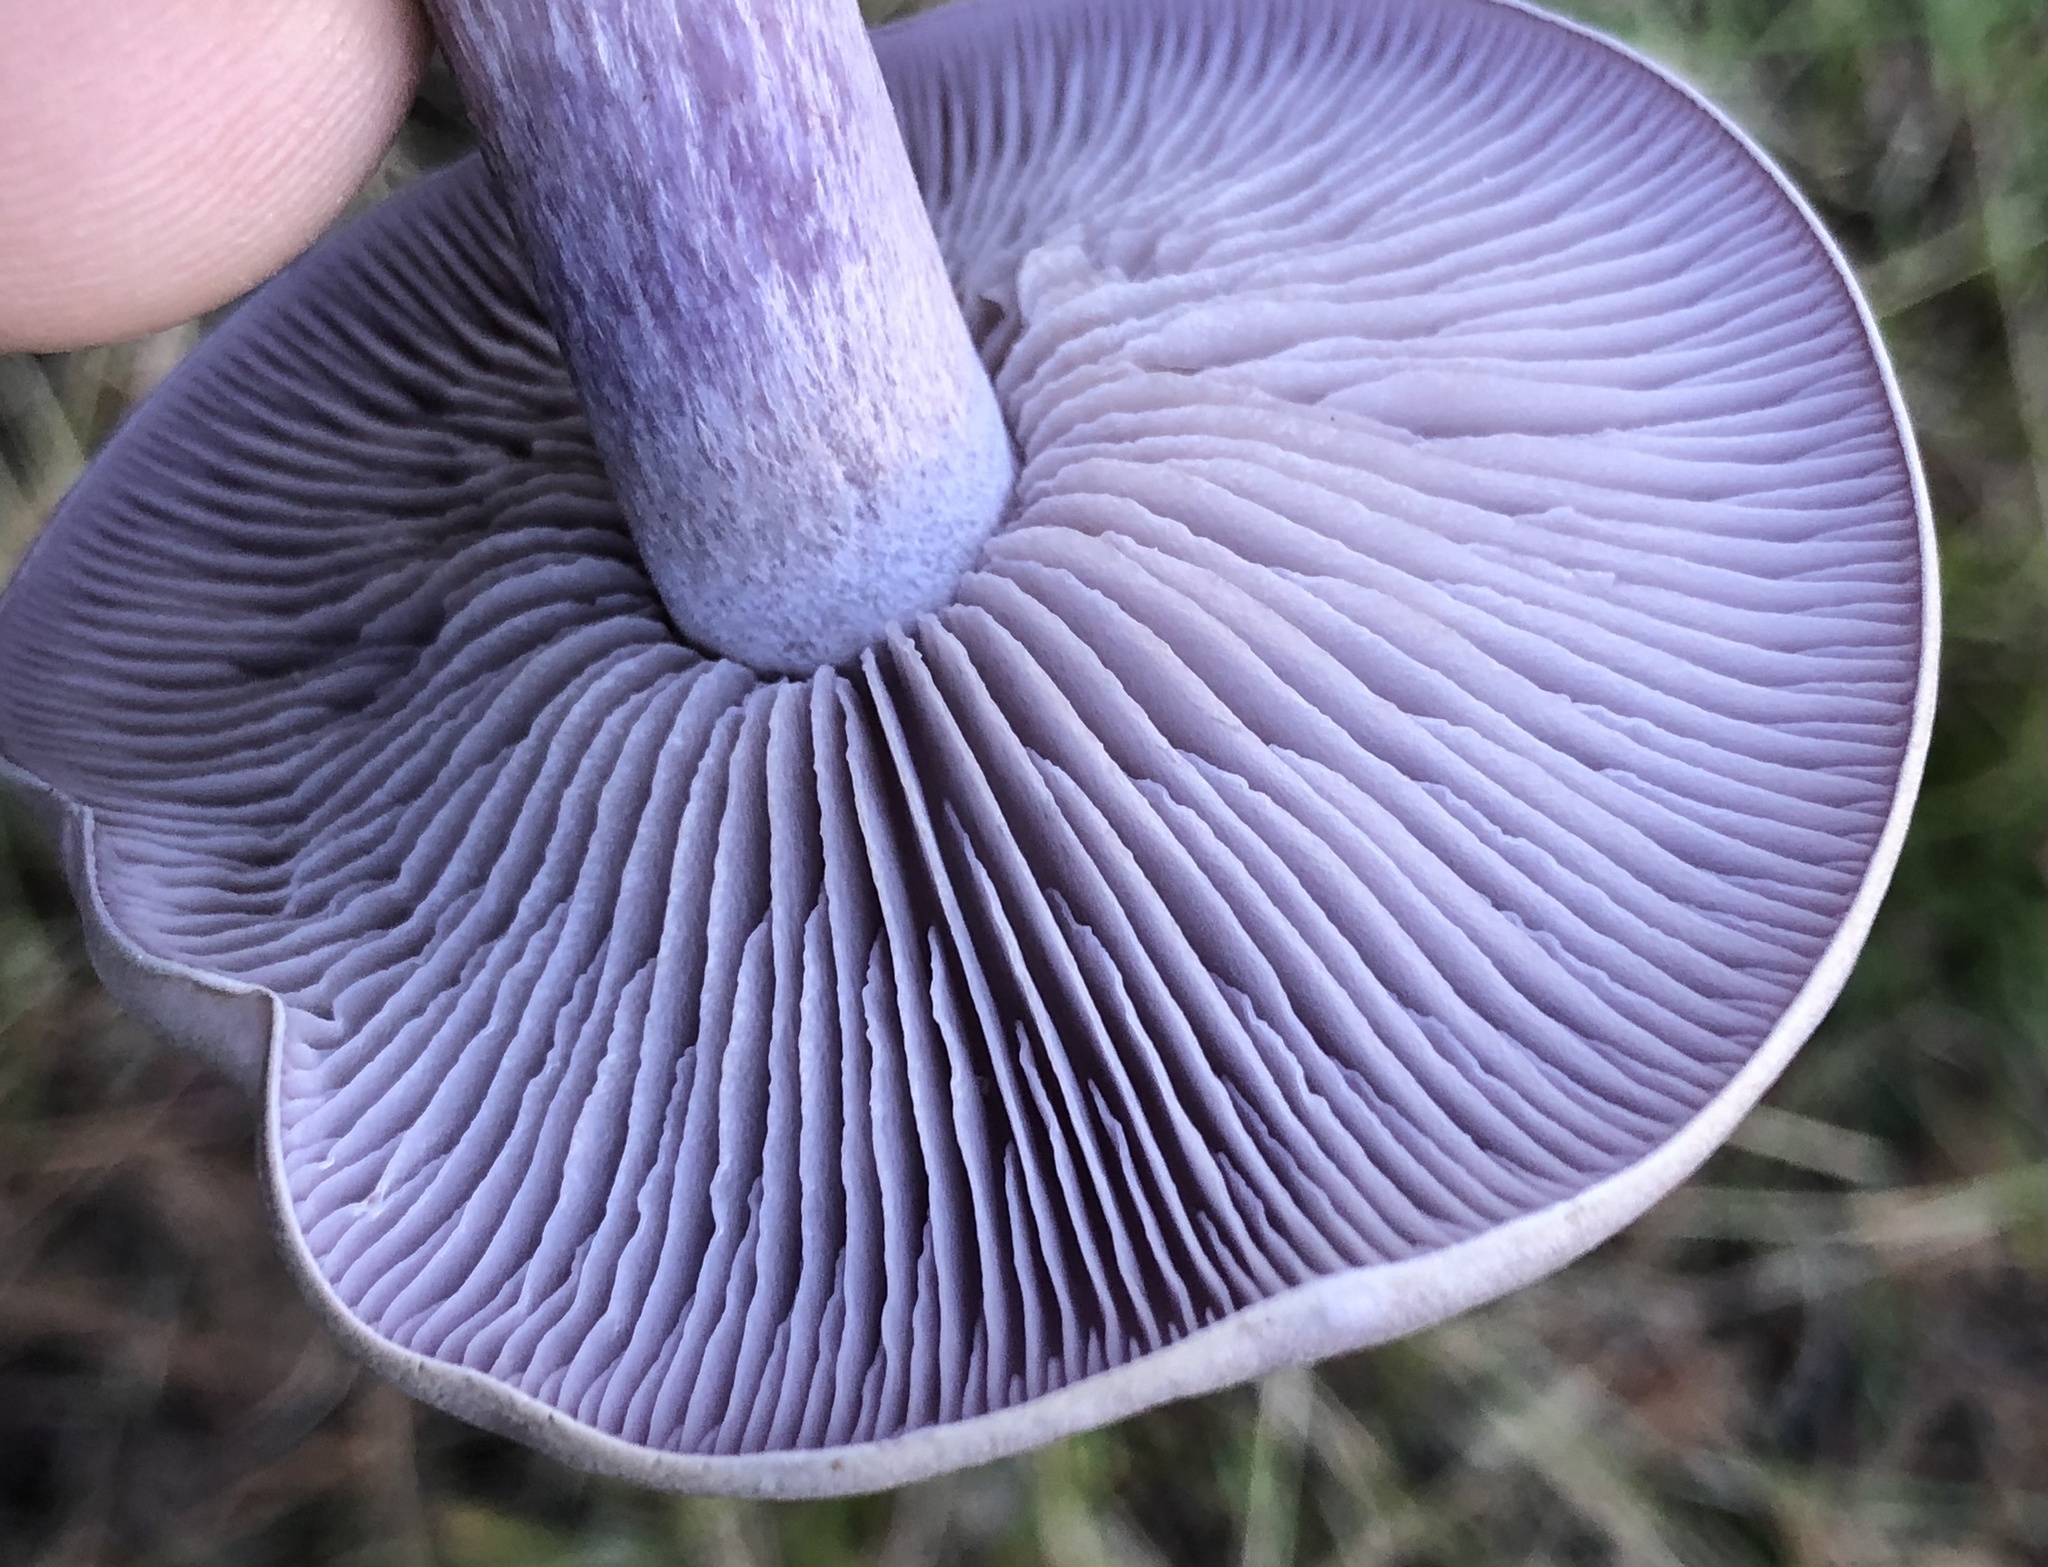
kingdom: Fungi
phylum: Basidiomycota
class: Agaricomycetes
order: Agaricales
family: Tricholomataceae
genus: Collybia
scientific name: Collybia
